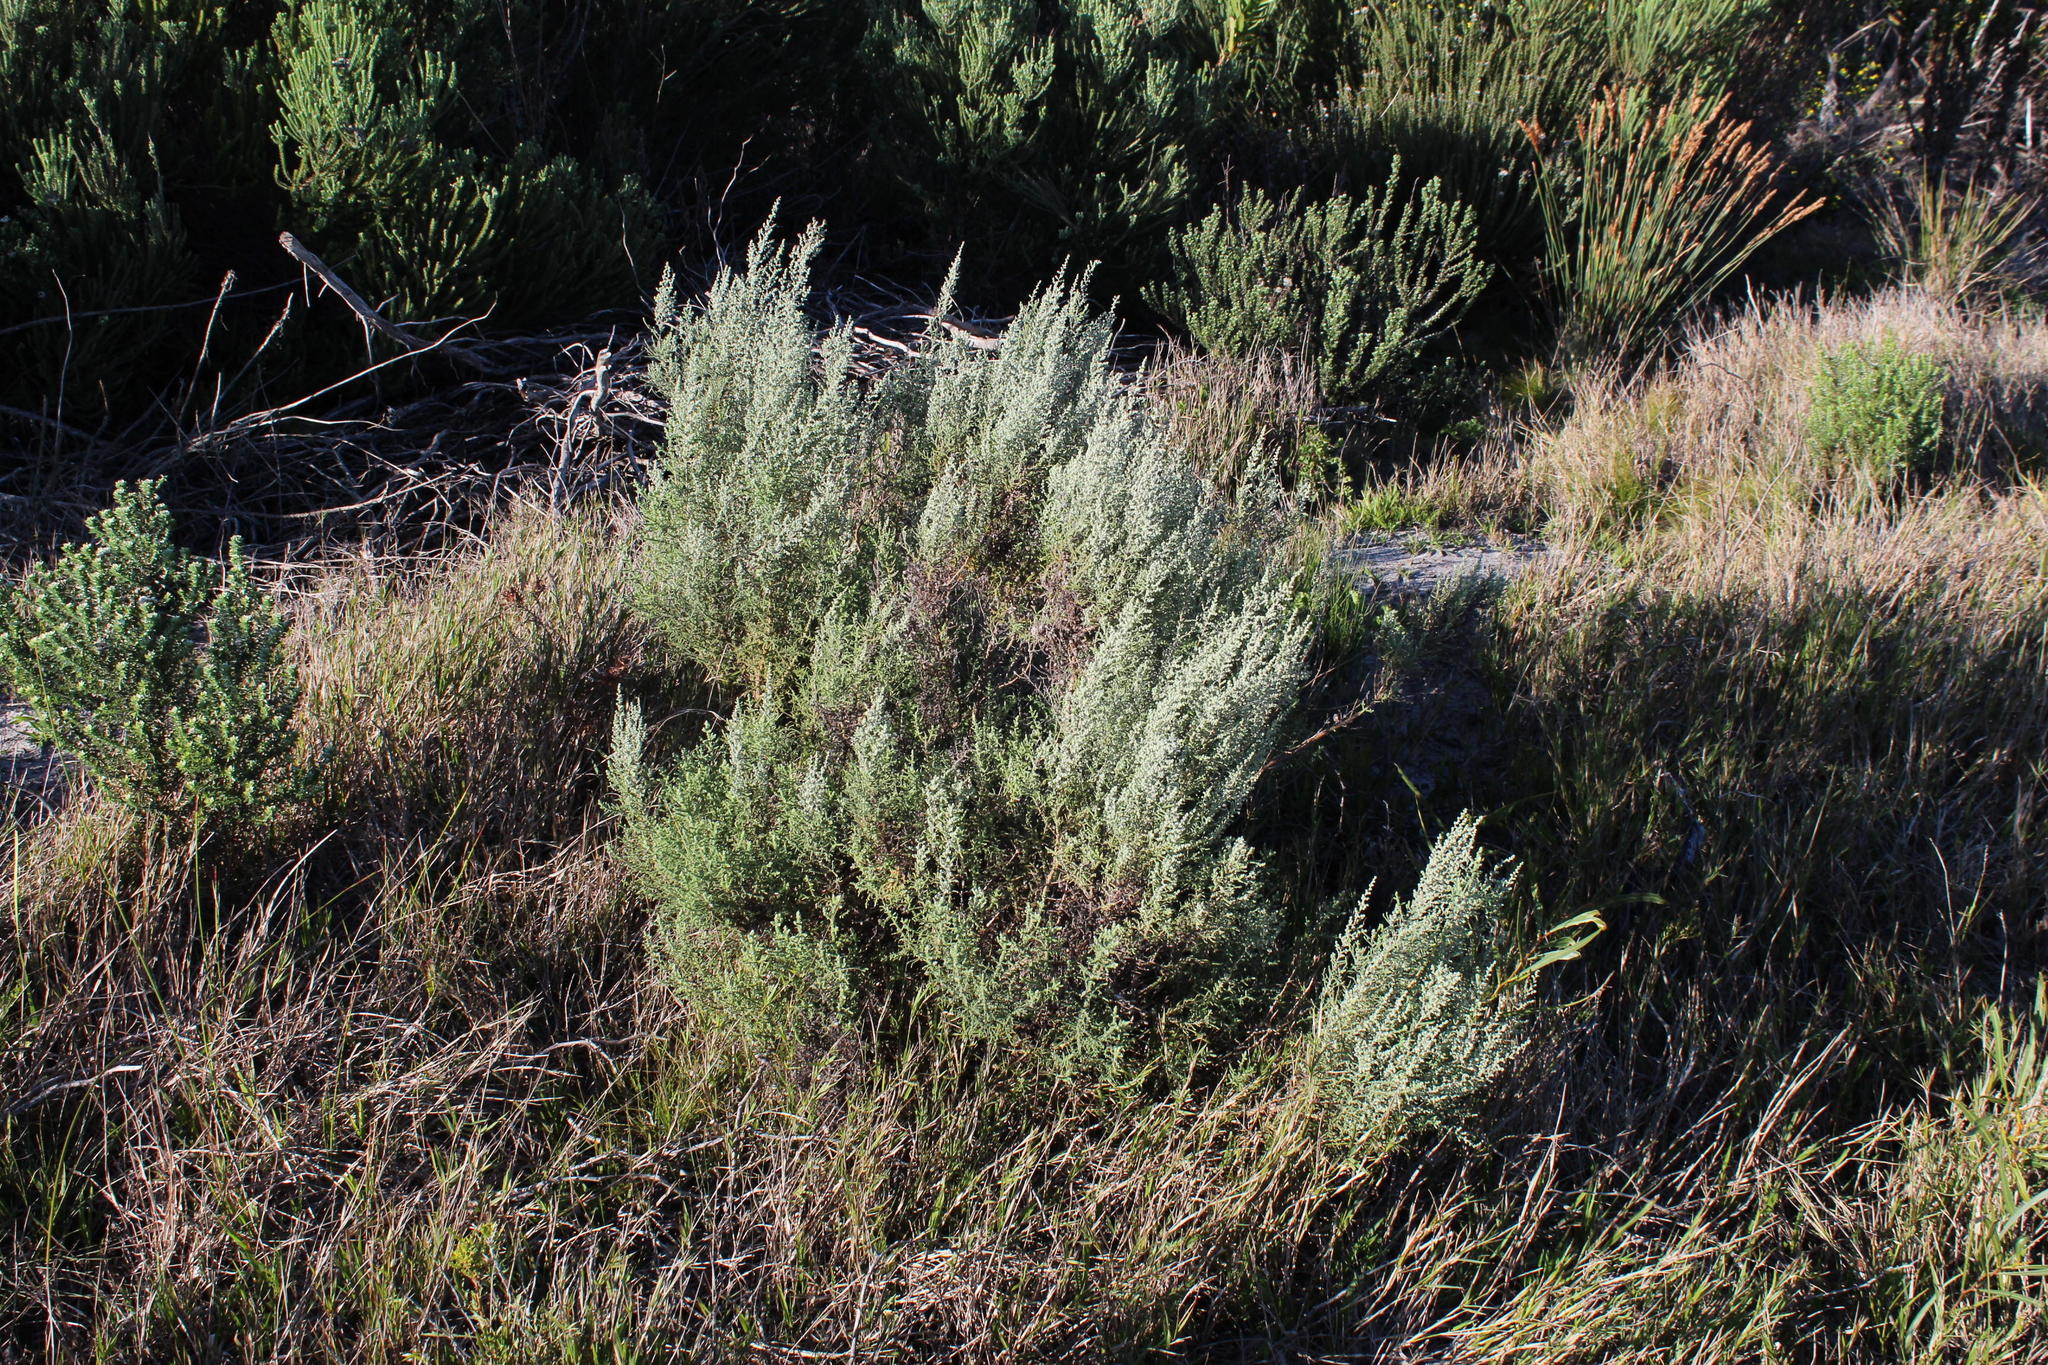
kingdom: Plantae
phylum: Tracheophyta
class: Magnoliopsida
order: Asterales
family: Asteraceae
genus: Seriphium
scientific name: Seriphium plumosum
